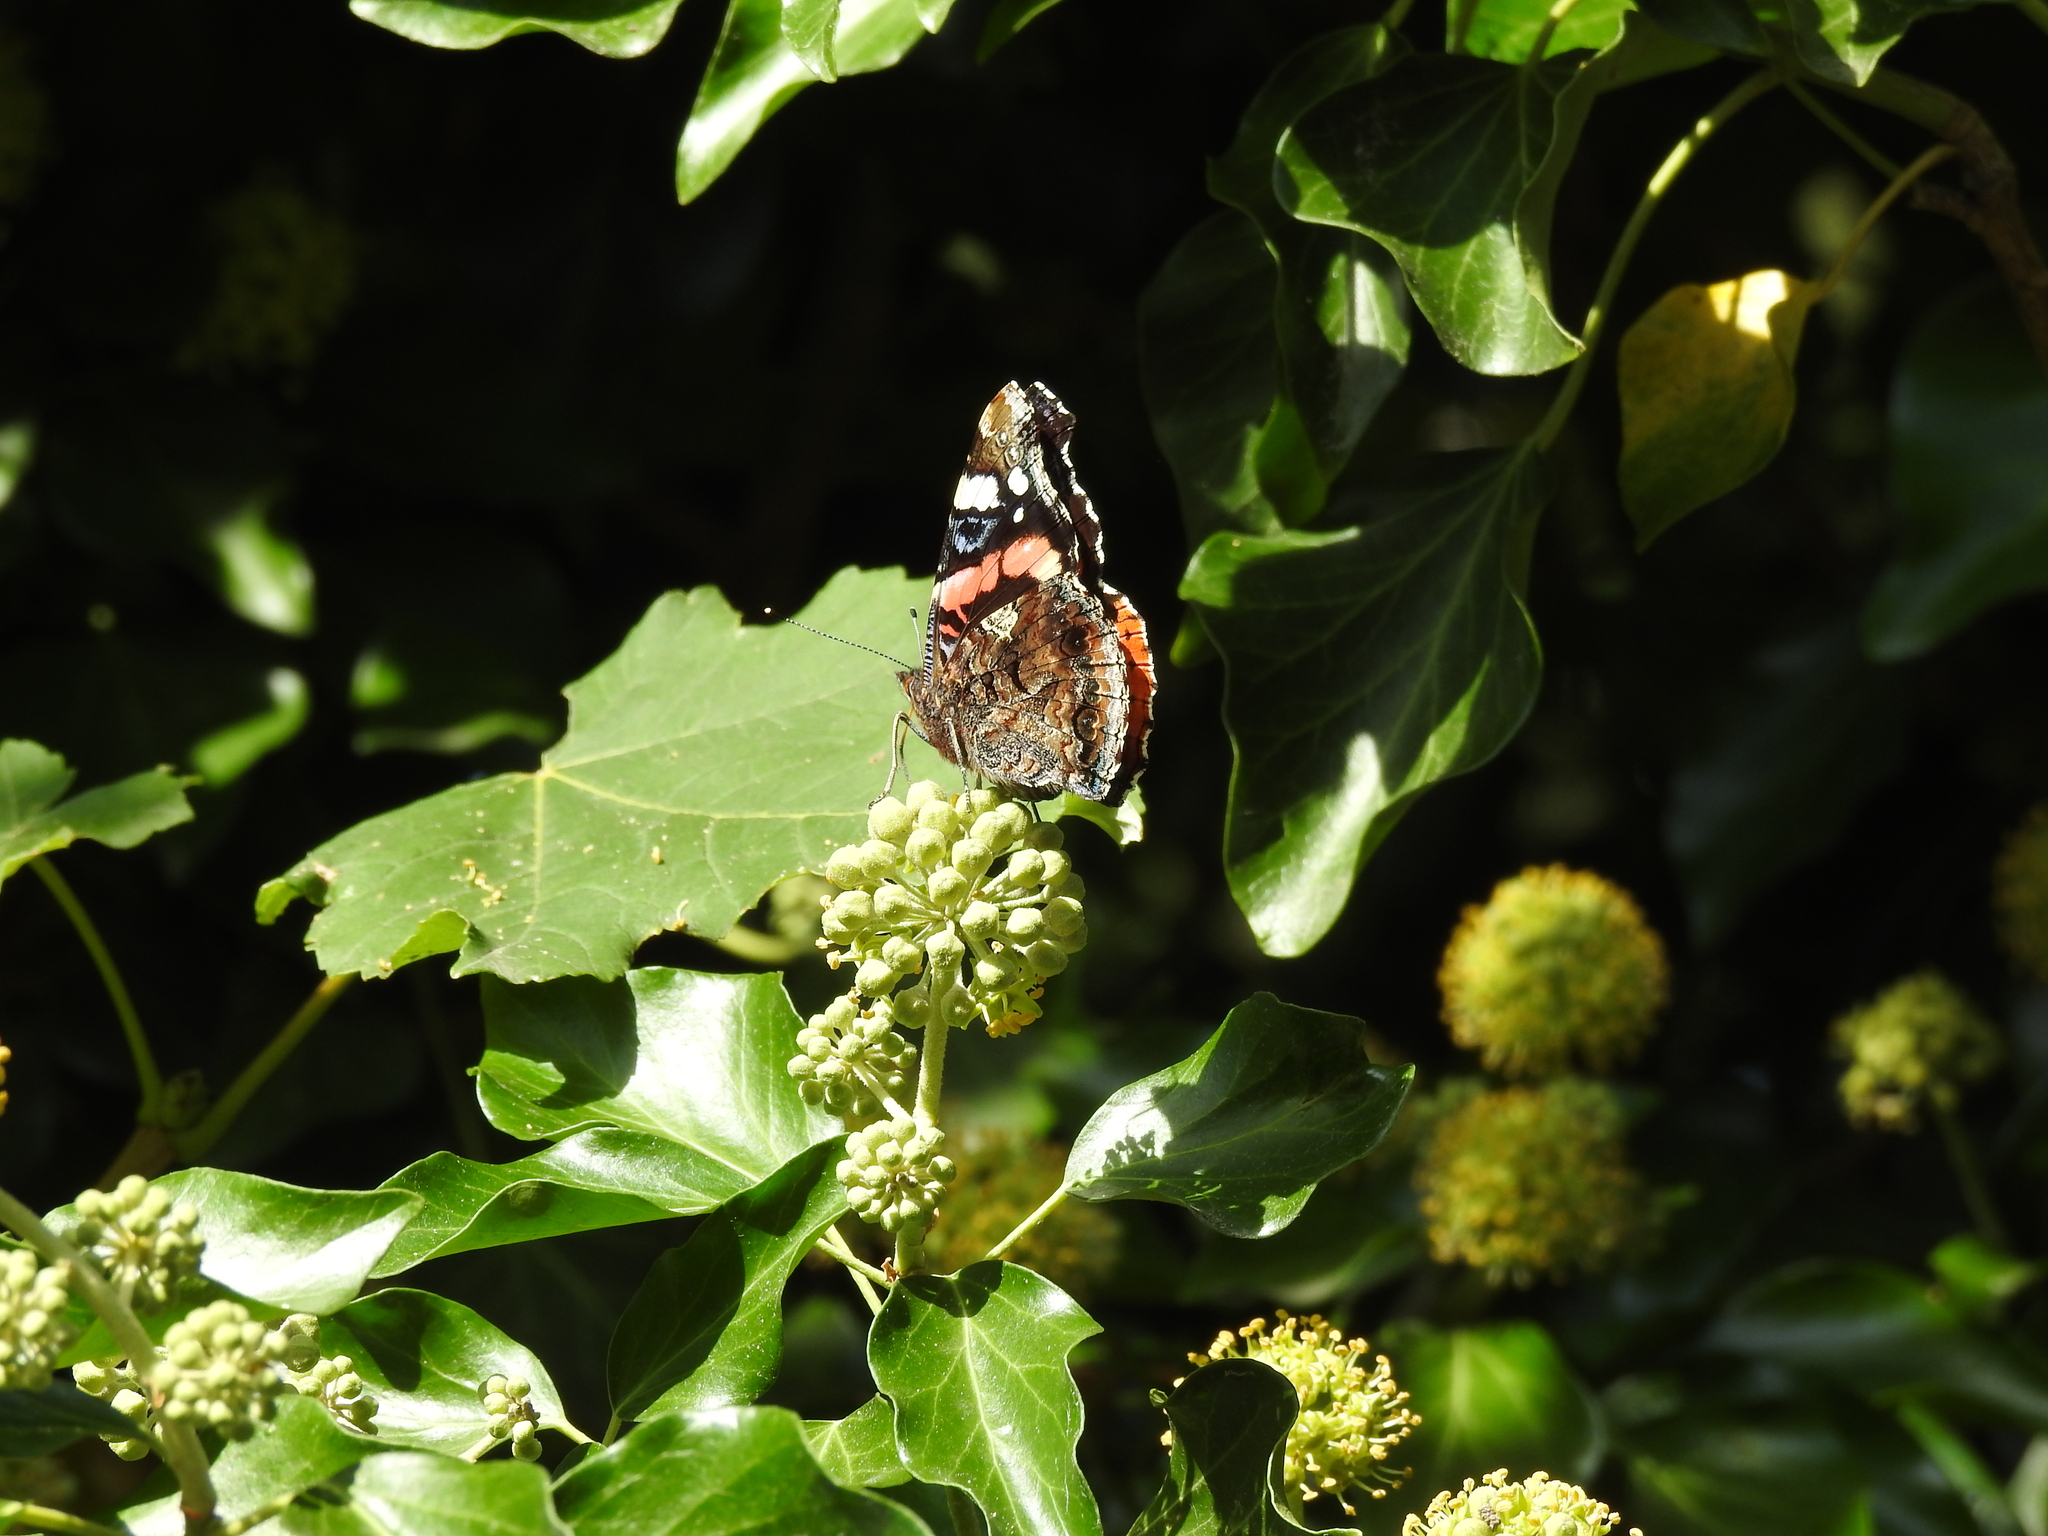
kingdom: Animalia
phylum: Arthropoda
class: Insecta
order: Lepidoptera
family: Nymphalidae
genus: Vanessa
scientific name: Vanessa atalanta
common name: Red admiral
